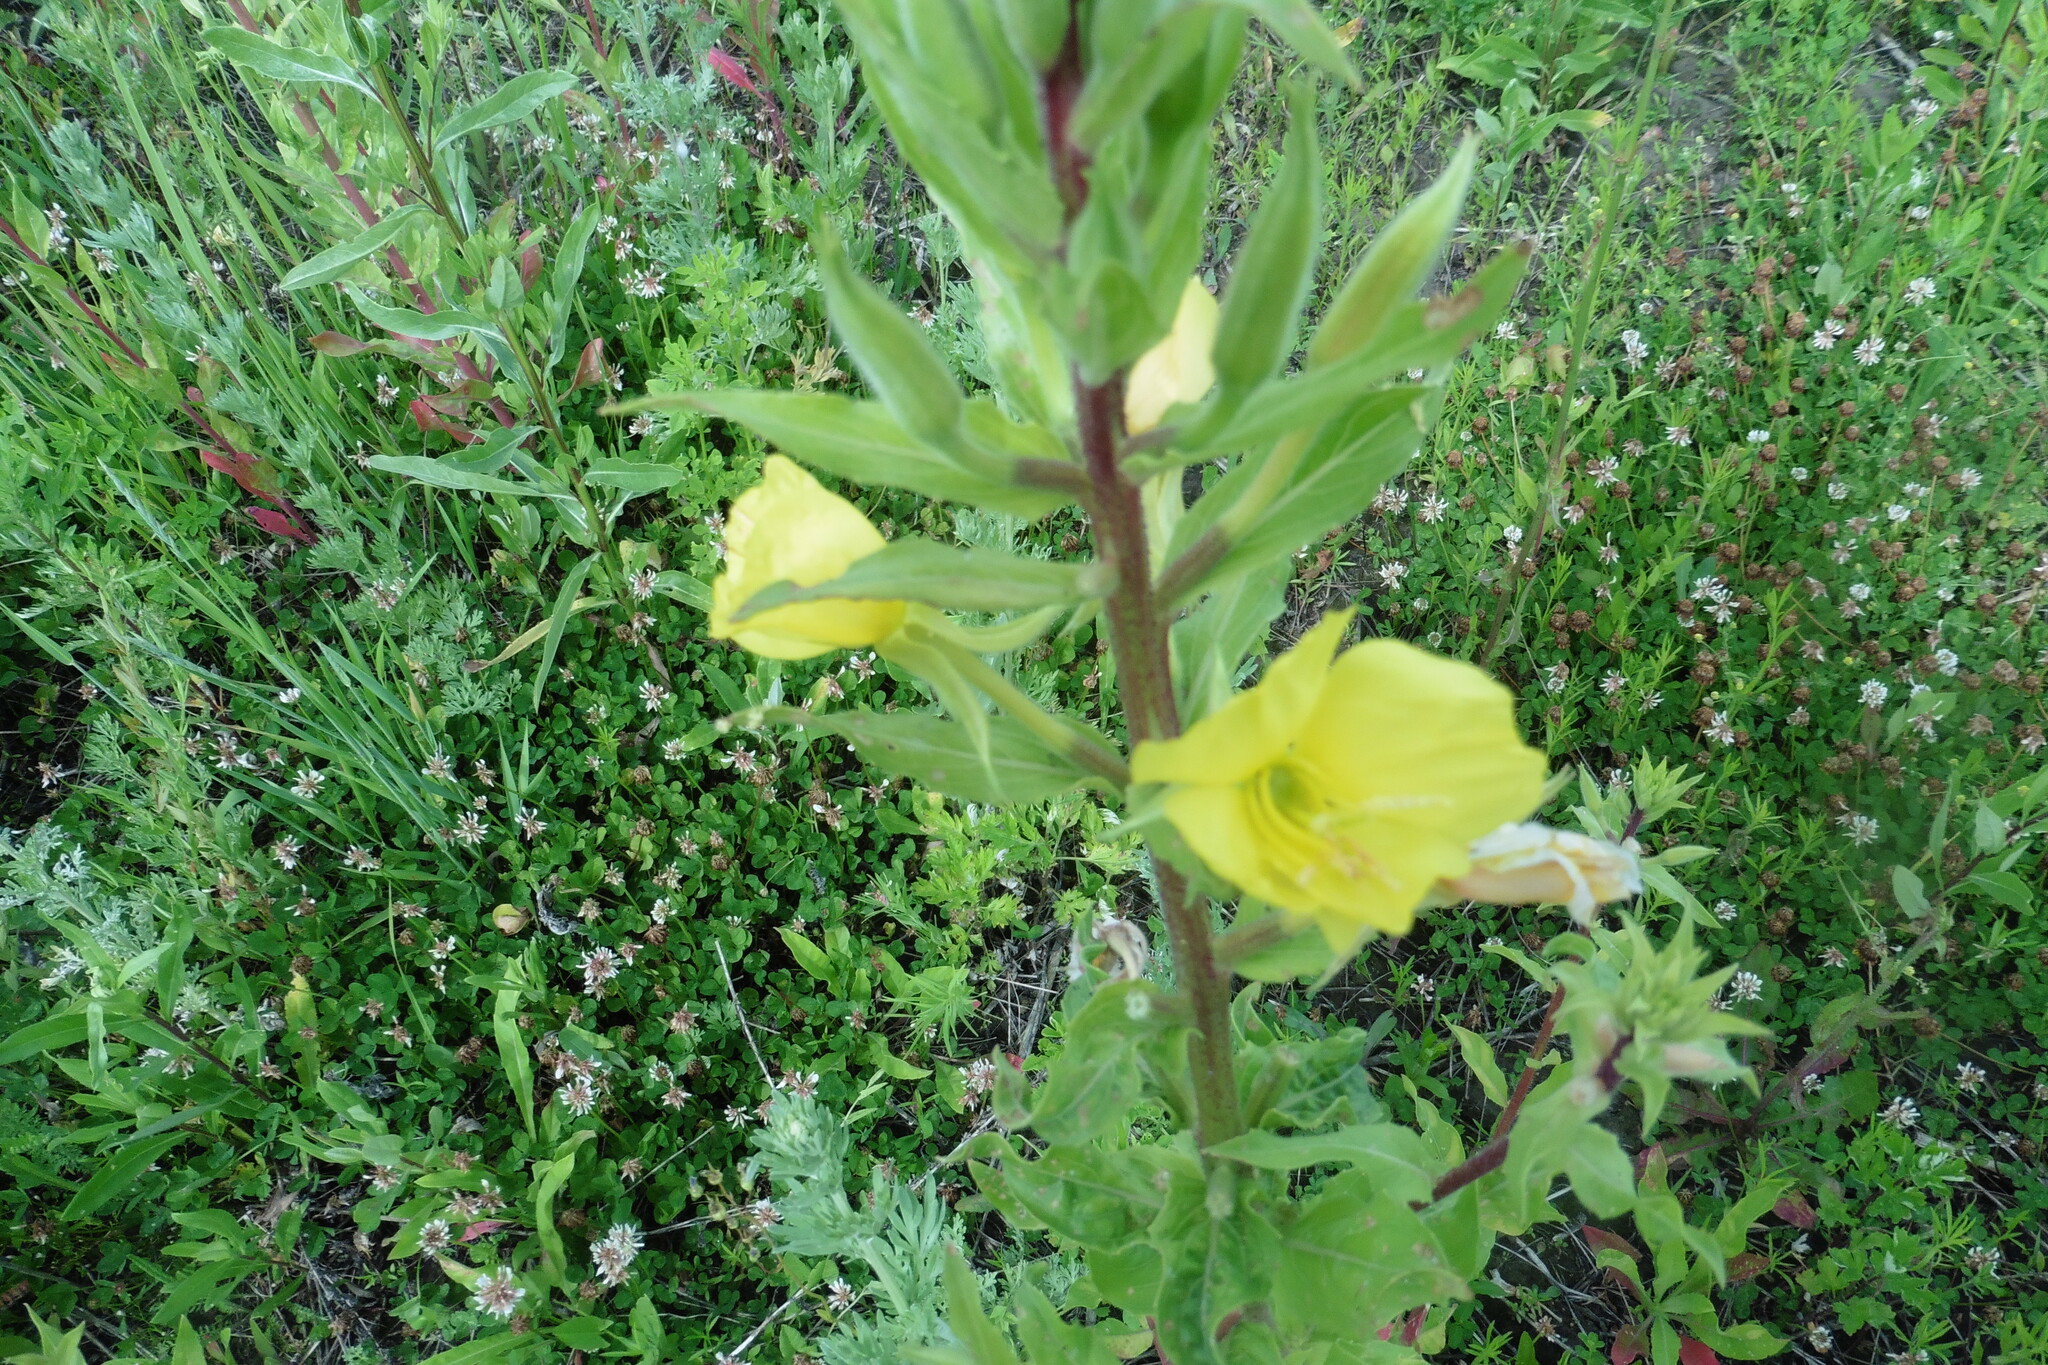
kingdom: Plantae
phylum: Tracheophyta
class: Magnoliopsida
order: Myrtales
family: Onagraceae
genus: Oenothera
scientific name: Oenothera rubricaulis
